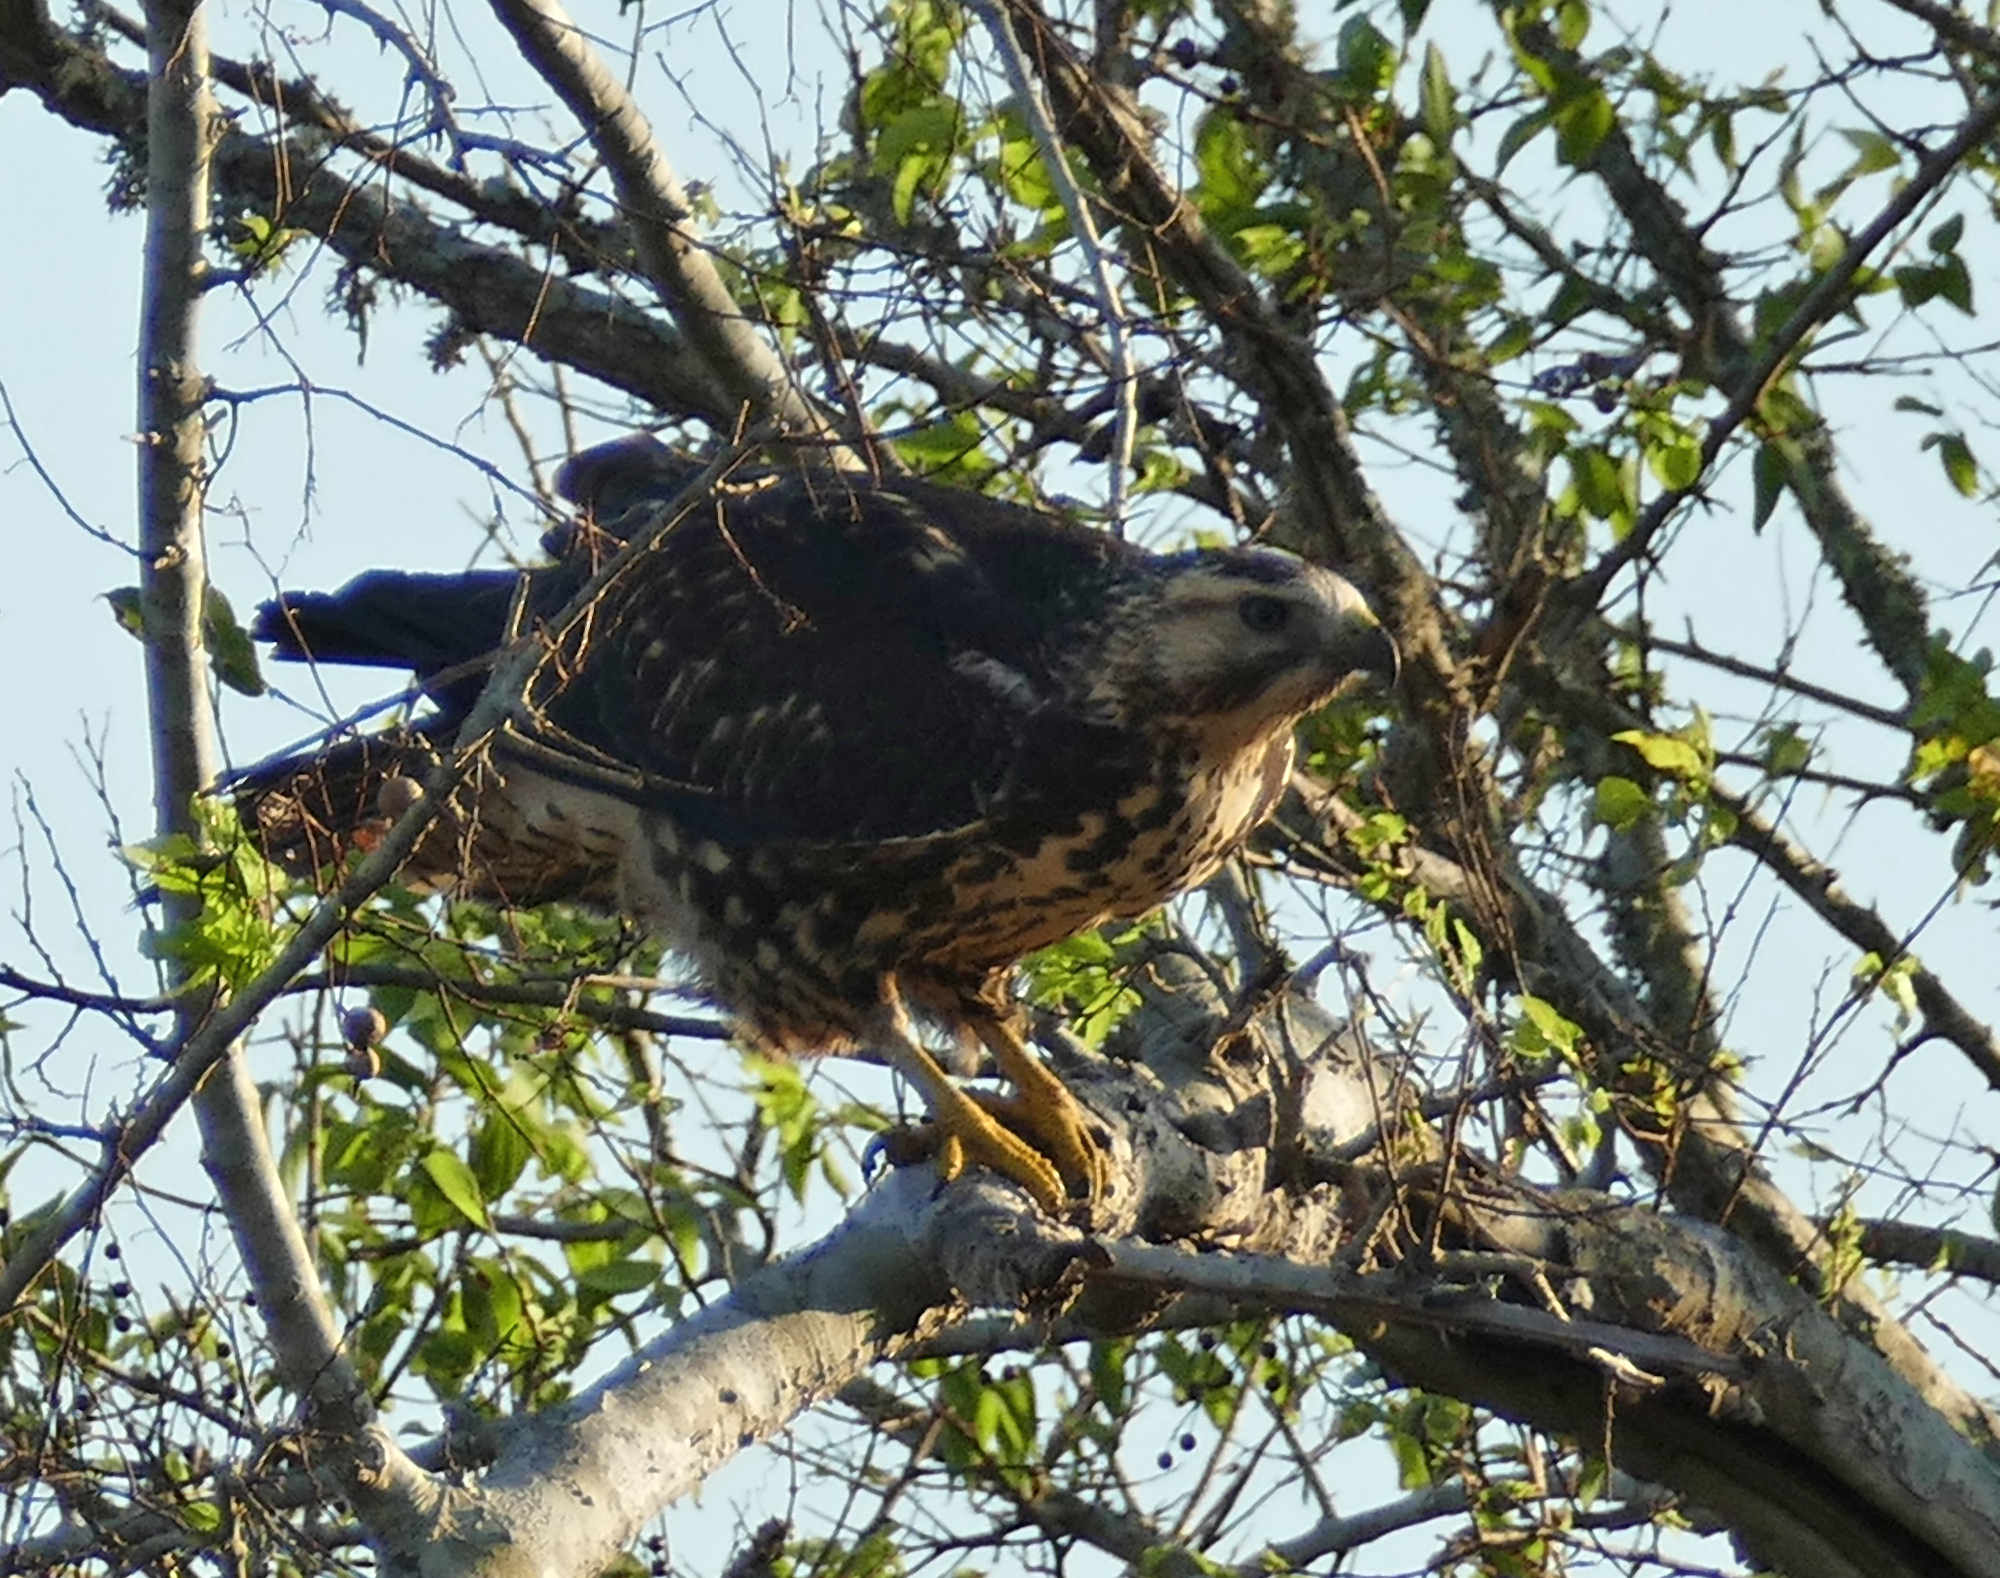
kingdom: Animalia
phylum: Chordata
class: Aves
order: Accipitriformes
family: Accipitridae
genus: Buteo
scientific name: Buteo swainsoni
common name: Swainson's hawk
